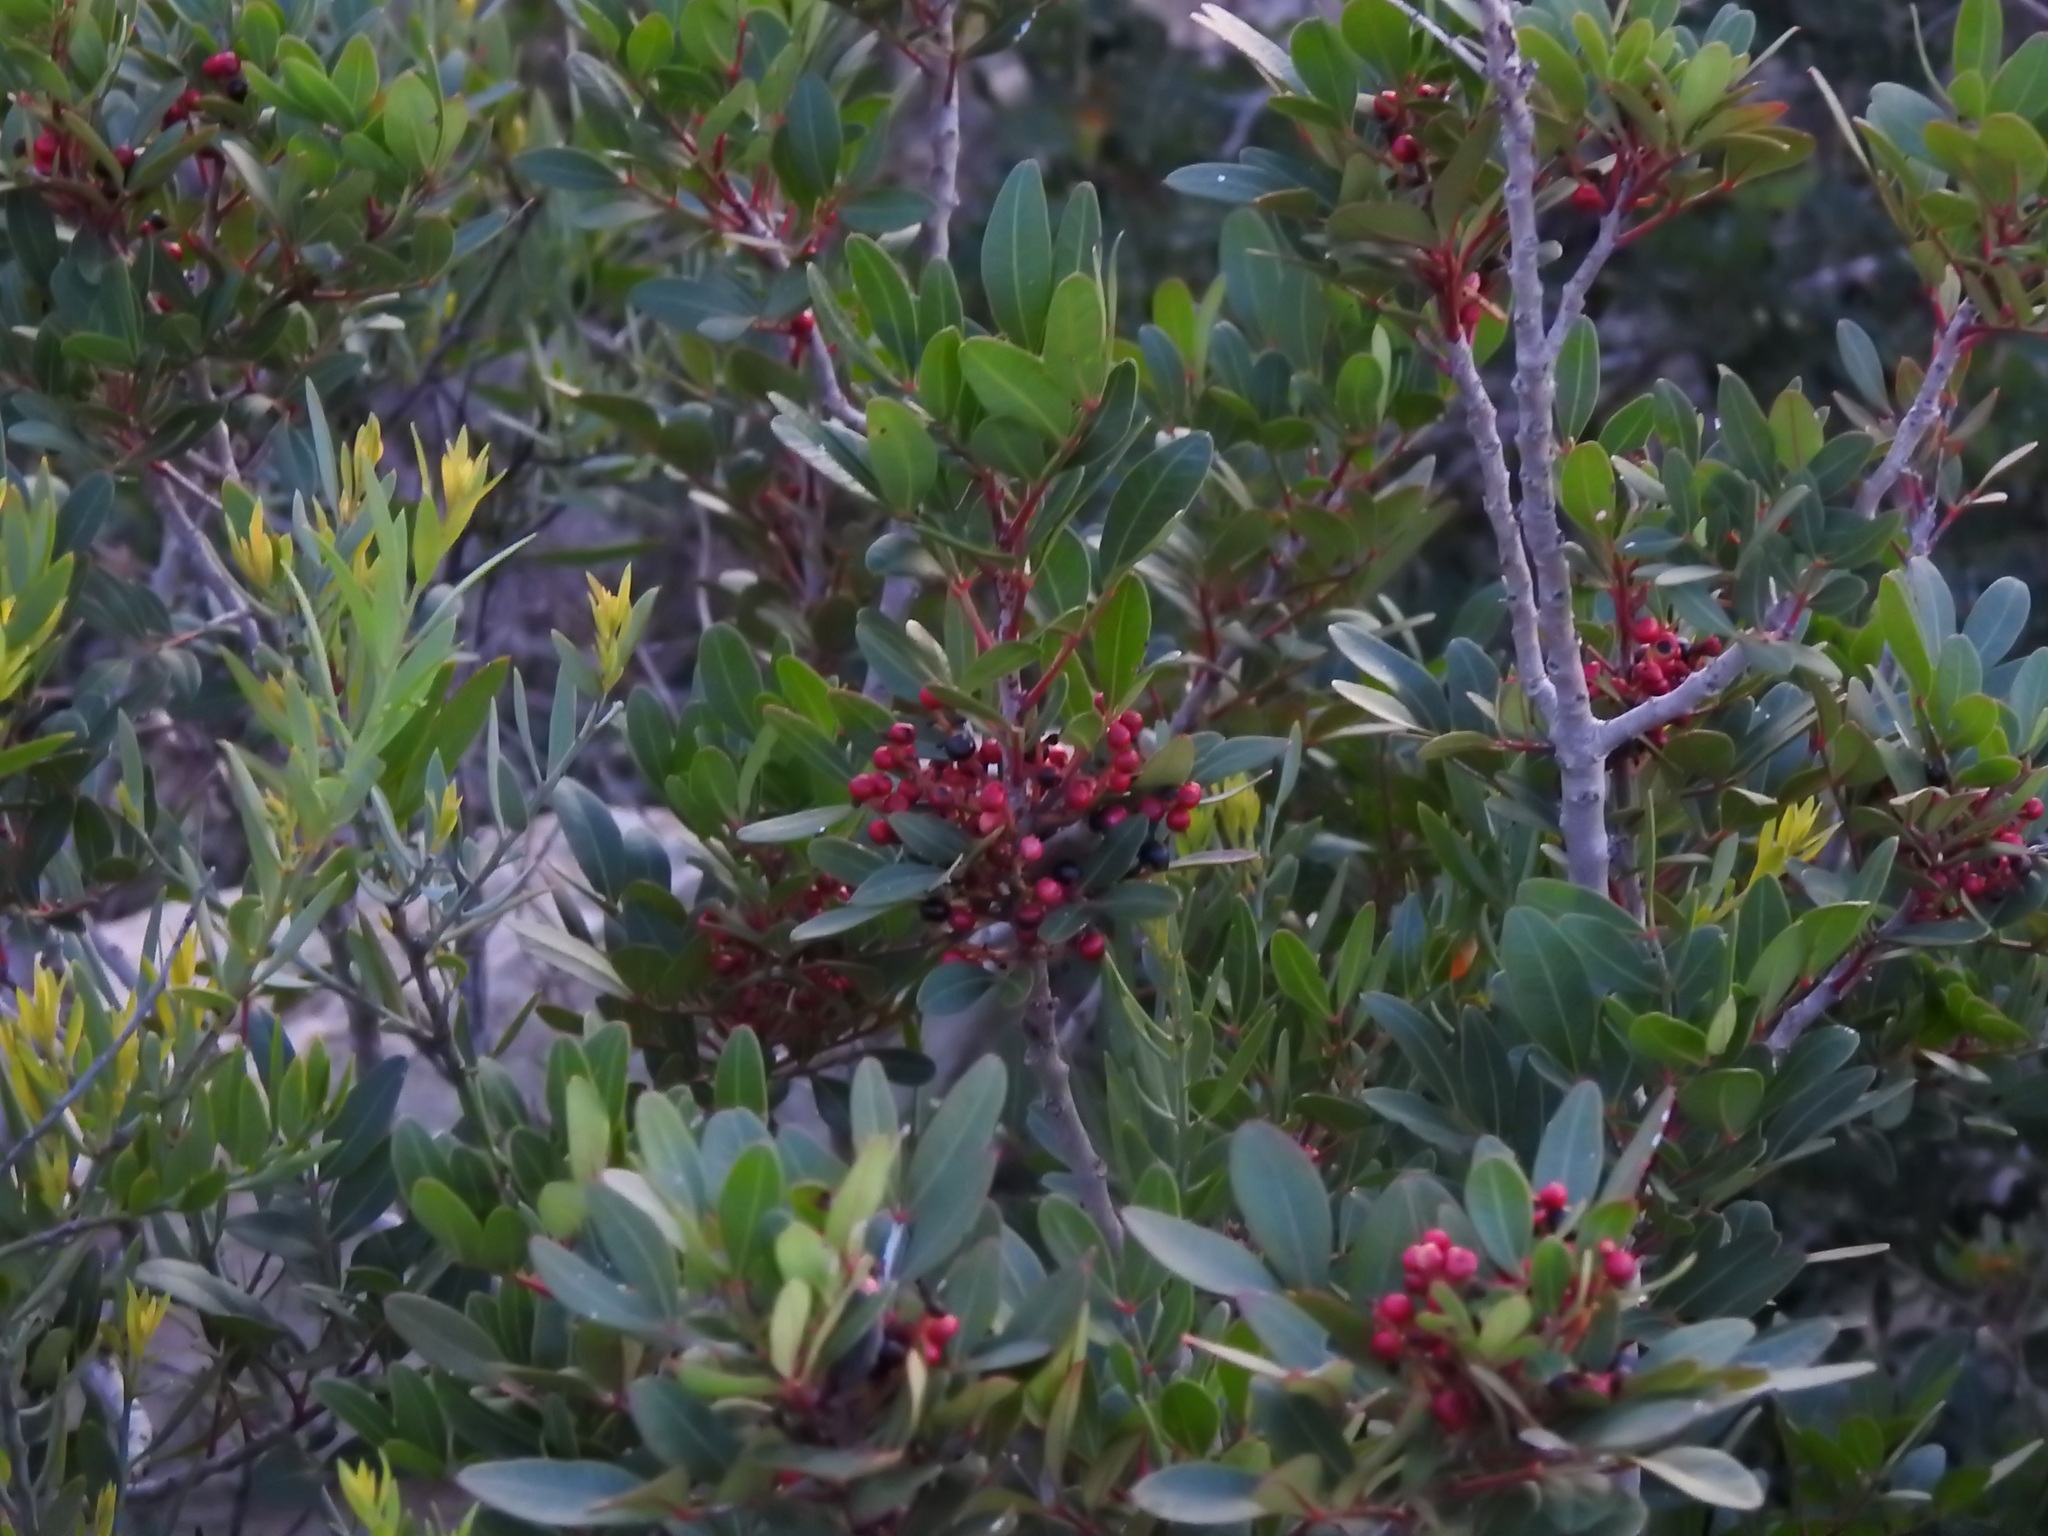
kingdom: Plantae
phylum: Tracheophyta
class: Magnoliopsida
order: Sapindales
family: Anacardiaceae
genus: Pistacia
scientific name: Pistacia lentiscus
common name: Lentisk
